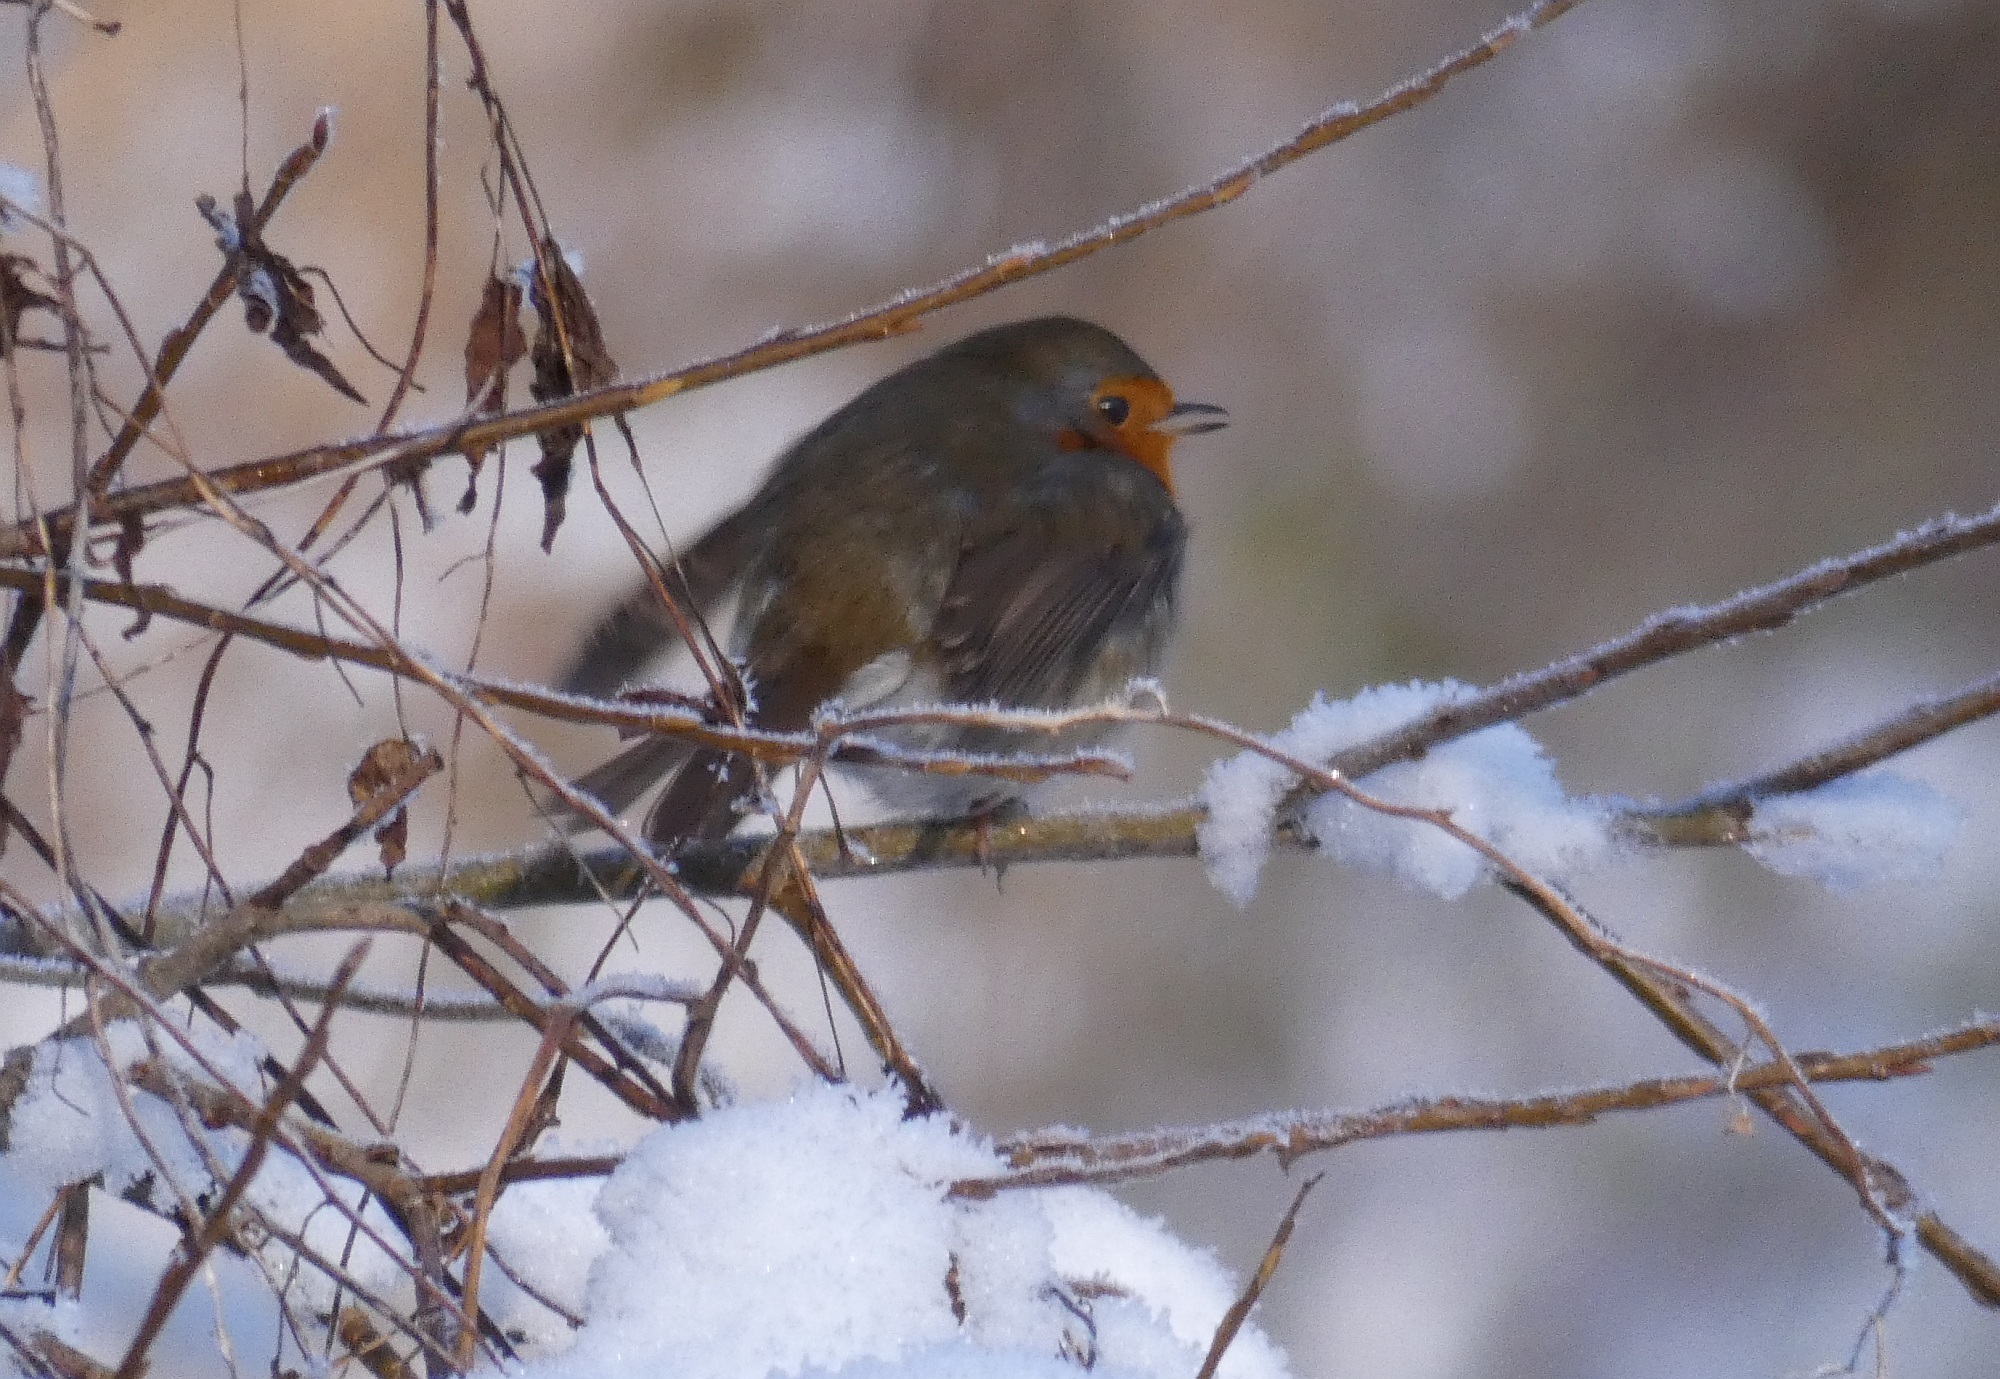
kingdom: Animalia
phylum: Chordata
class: Aves
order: Passeriformes
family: Muscicapidae
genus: Erithacus
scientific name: Erithacus rubecula
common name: European robin
